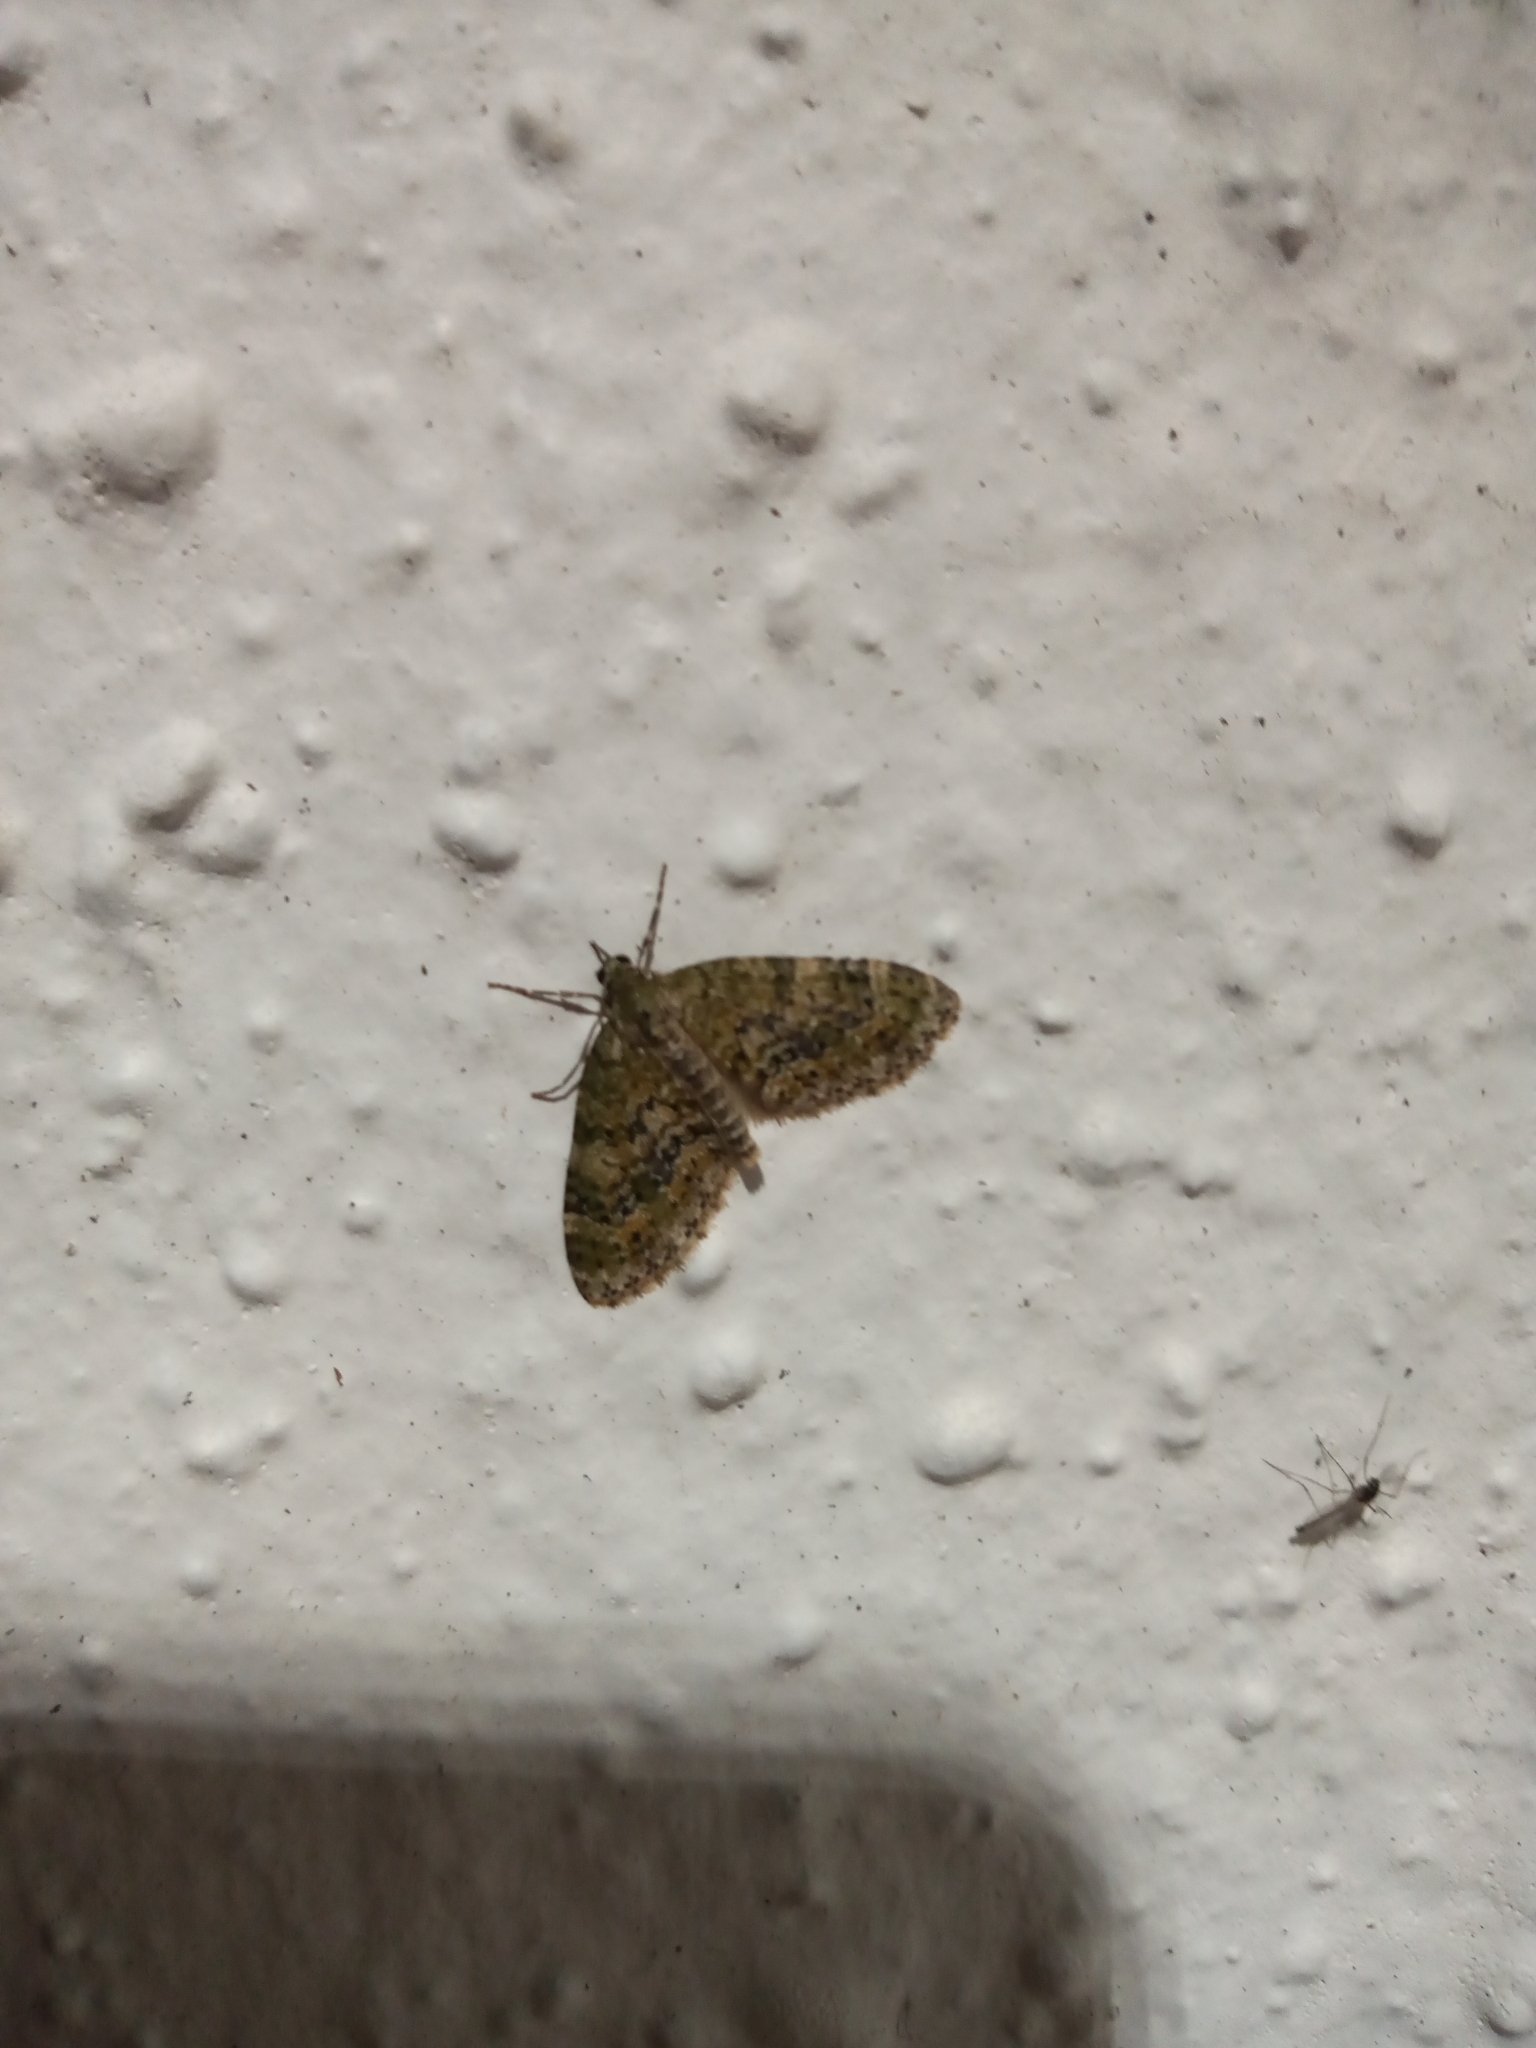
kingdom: Animalia
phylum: Arthropoda
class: Insecta
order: Lepidoptera
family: Geometridae
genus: Acasis
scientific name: Acasis viretata
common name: Yellow-barred brindle
